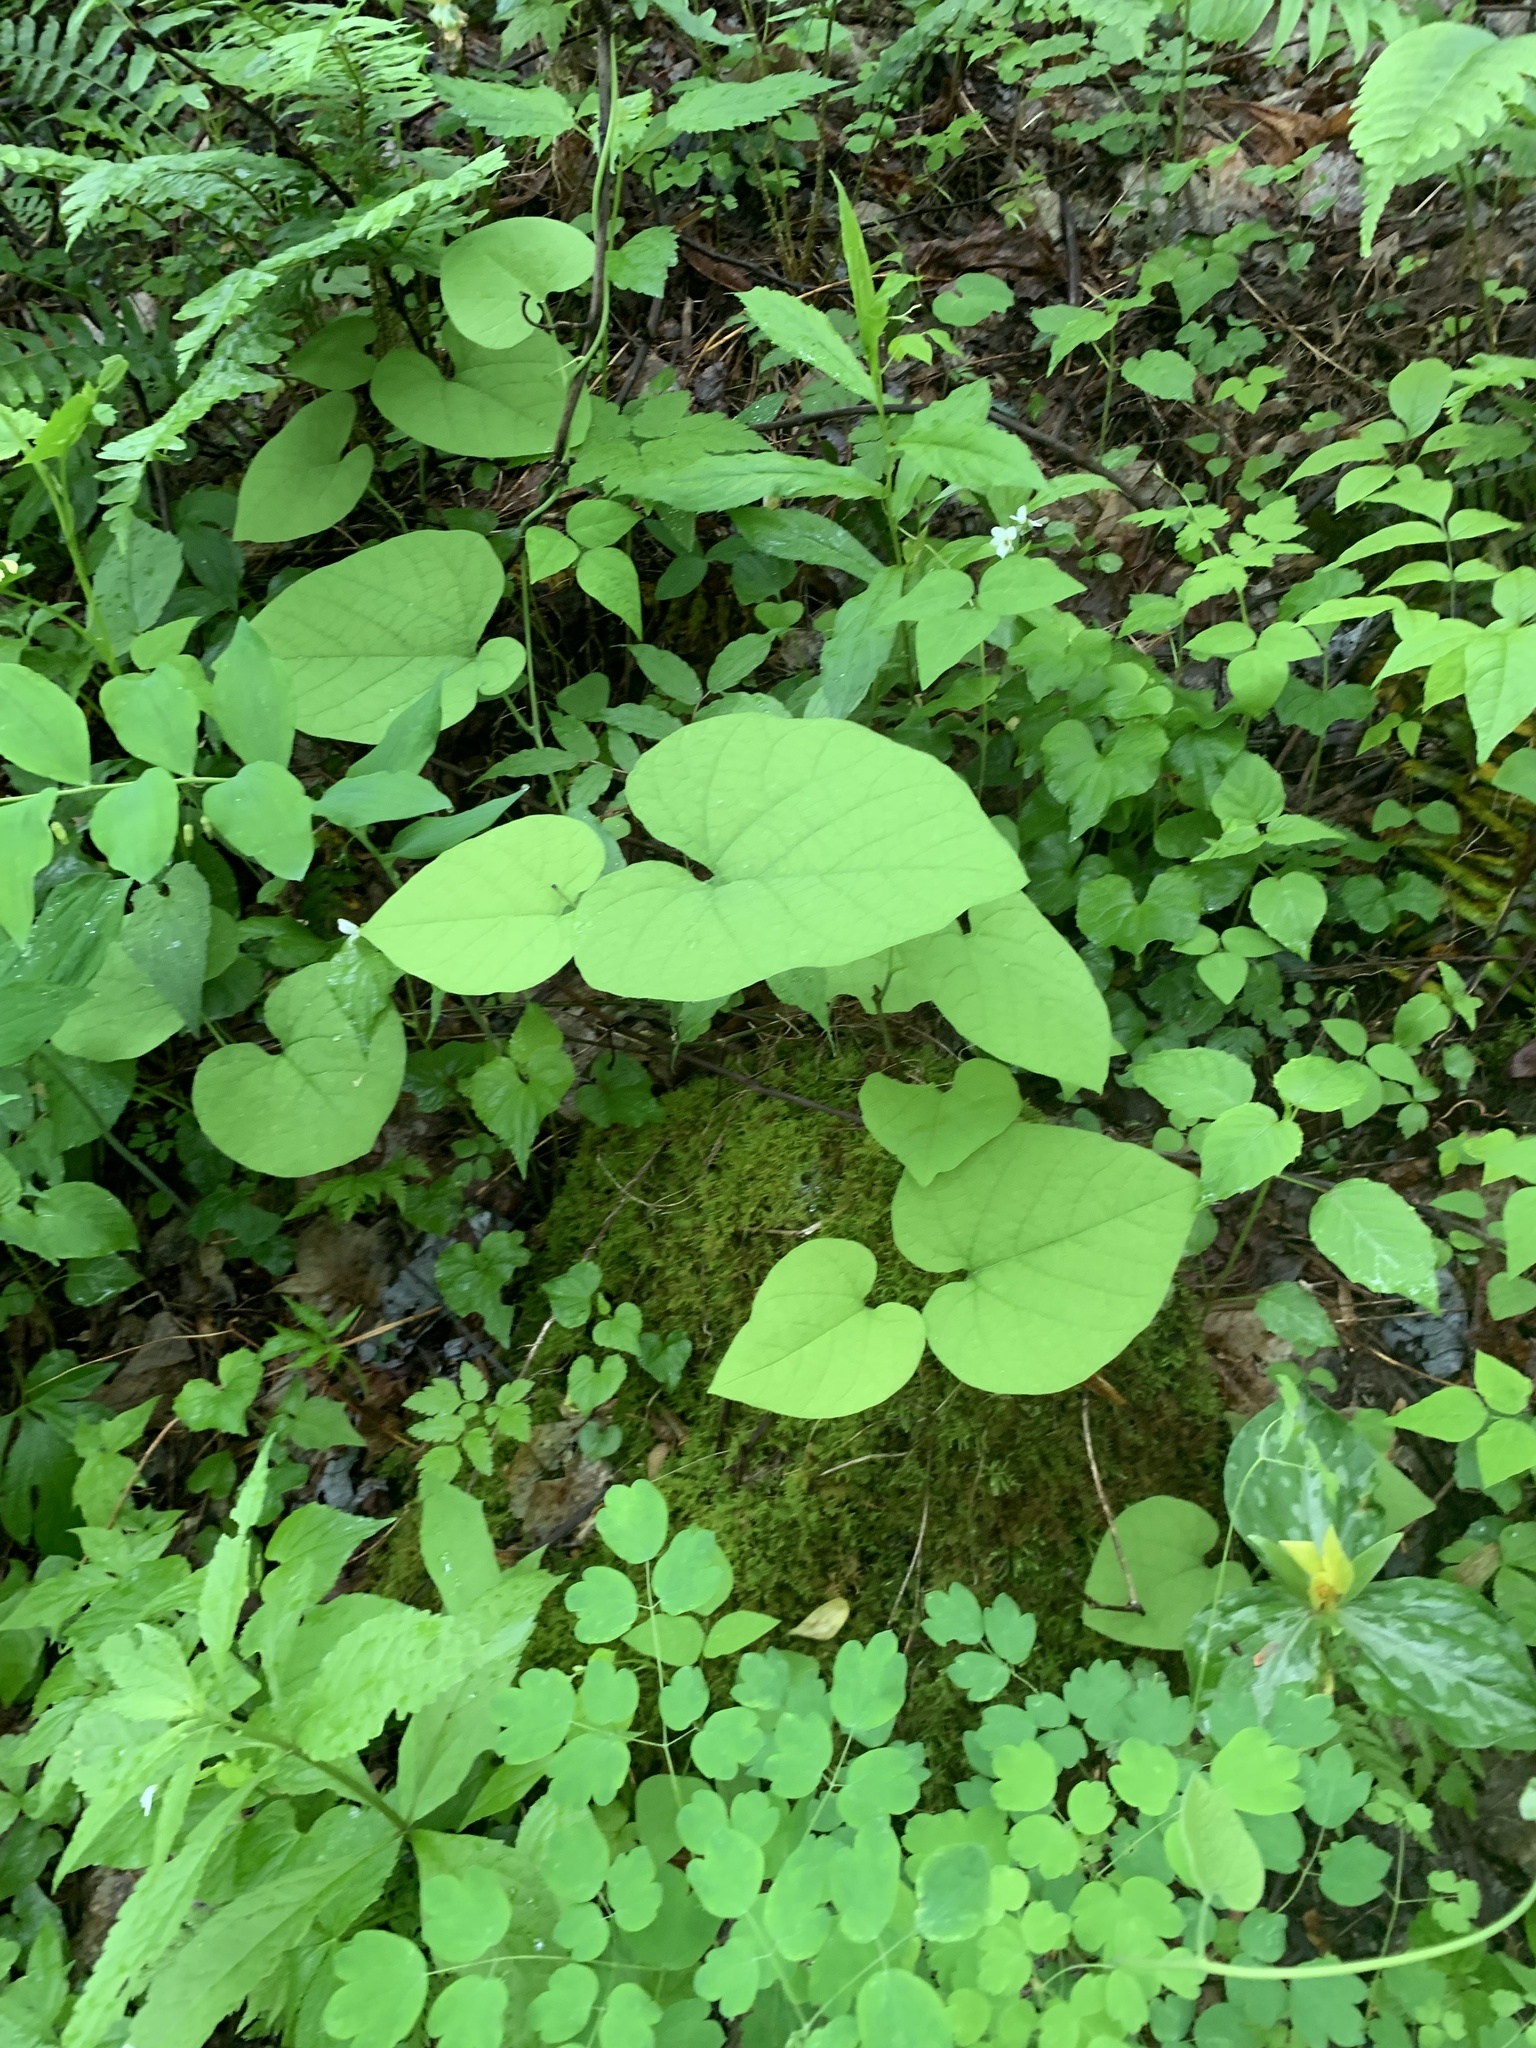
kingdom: Plantae
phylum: Tracheophyta
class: Magnoliopsida
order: Piperales
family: Aristolochiaceae
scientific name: Aristolochiaceae
